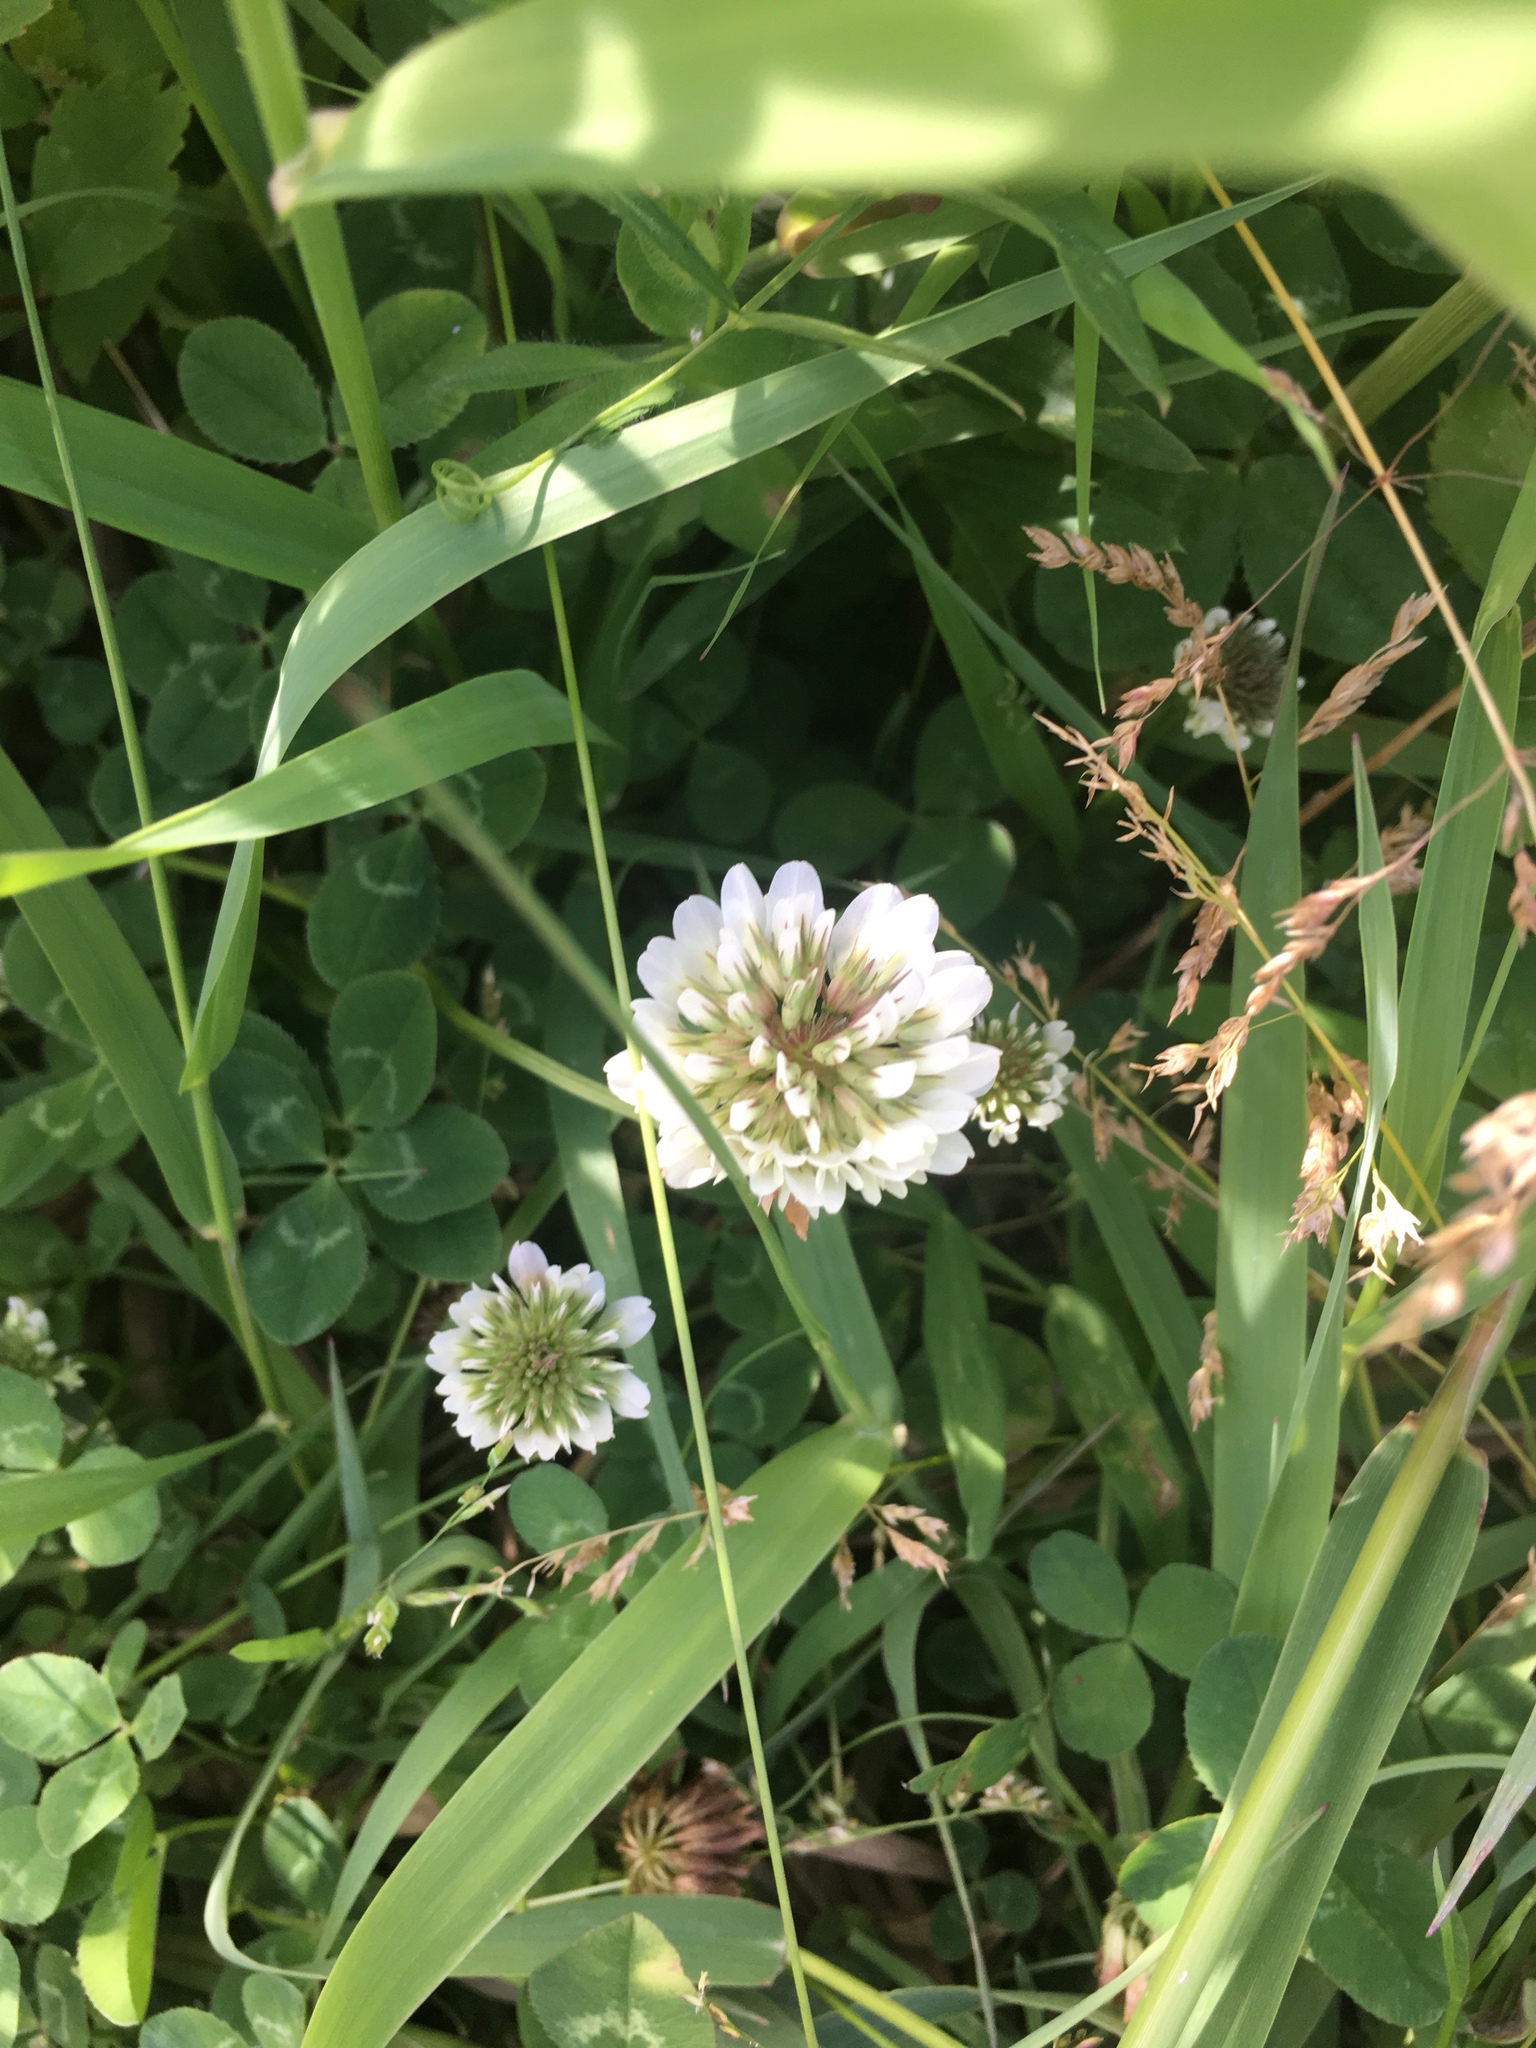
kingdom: Plantae
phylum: Tracheophyta
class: Magnoliopsida
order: Fabales
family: Fabaceae
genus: Trifolium
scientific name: Trifolium repens
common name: White clover
